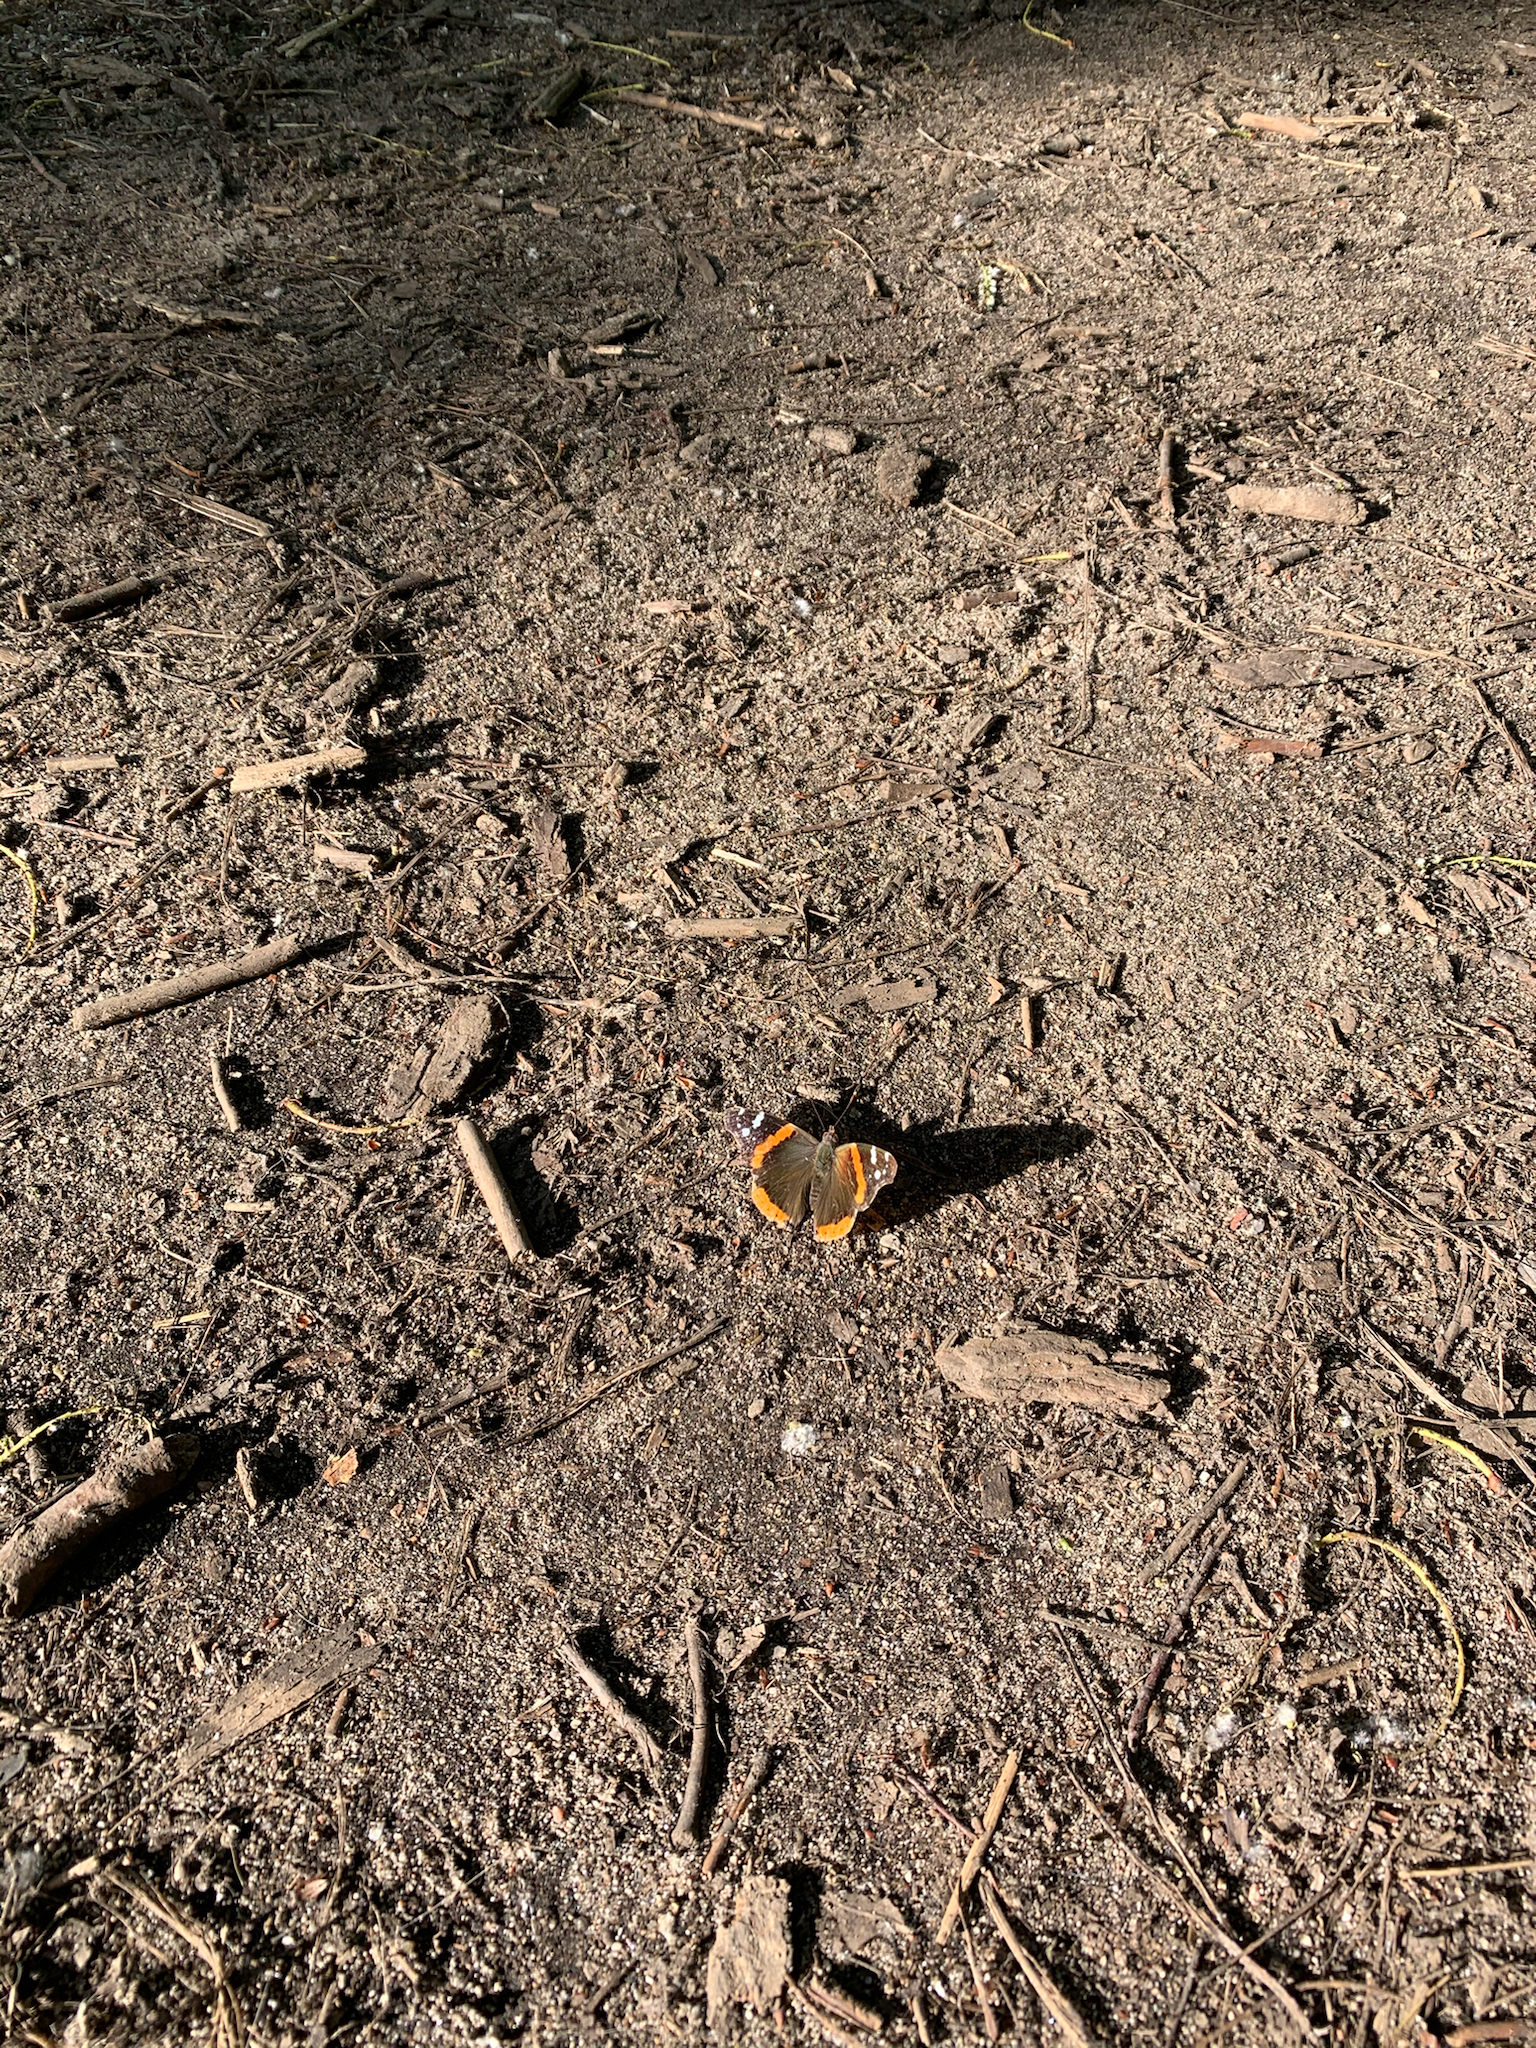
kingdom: Animalia
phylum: Arthropoda
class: Insecta
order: Lepidoptera
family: Nymphalidae
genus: Vanessa
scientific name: Vanessa atalanta
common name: Red admiral
